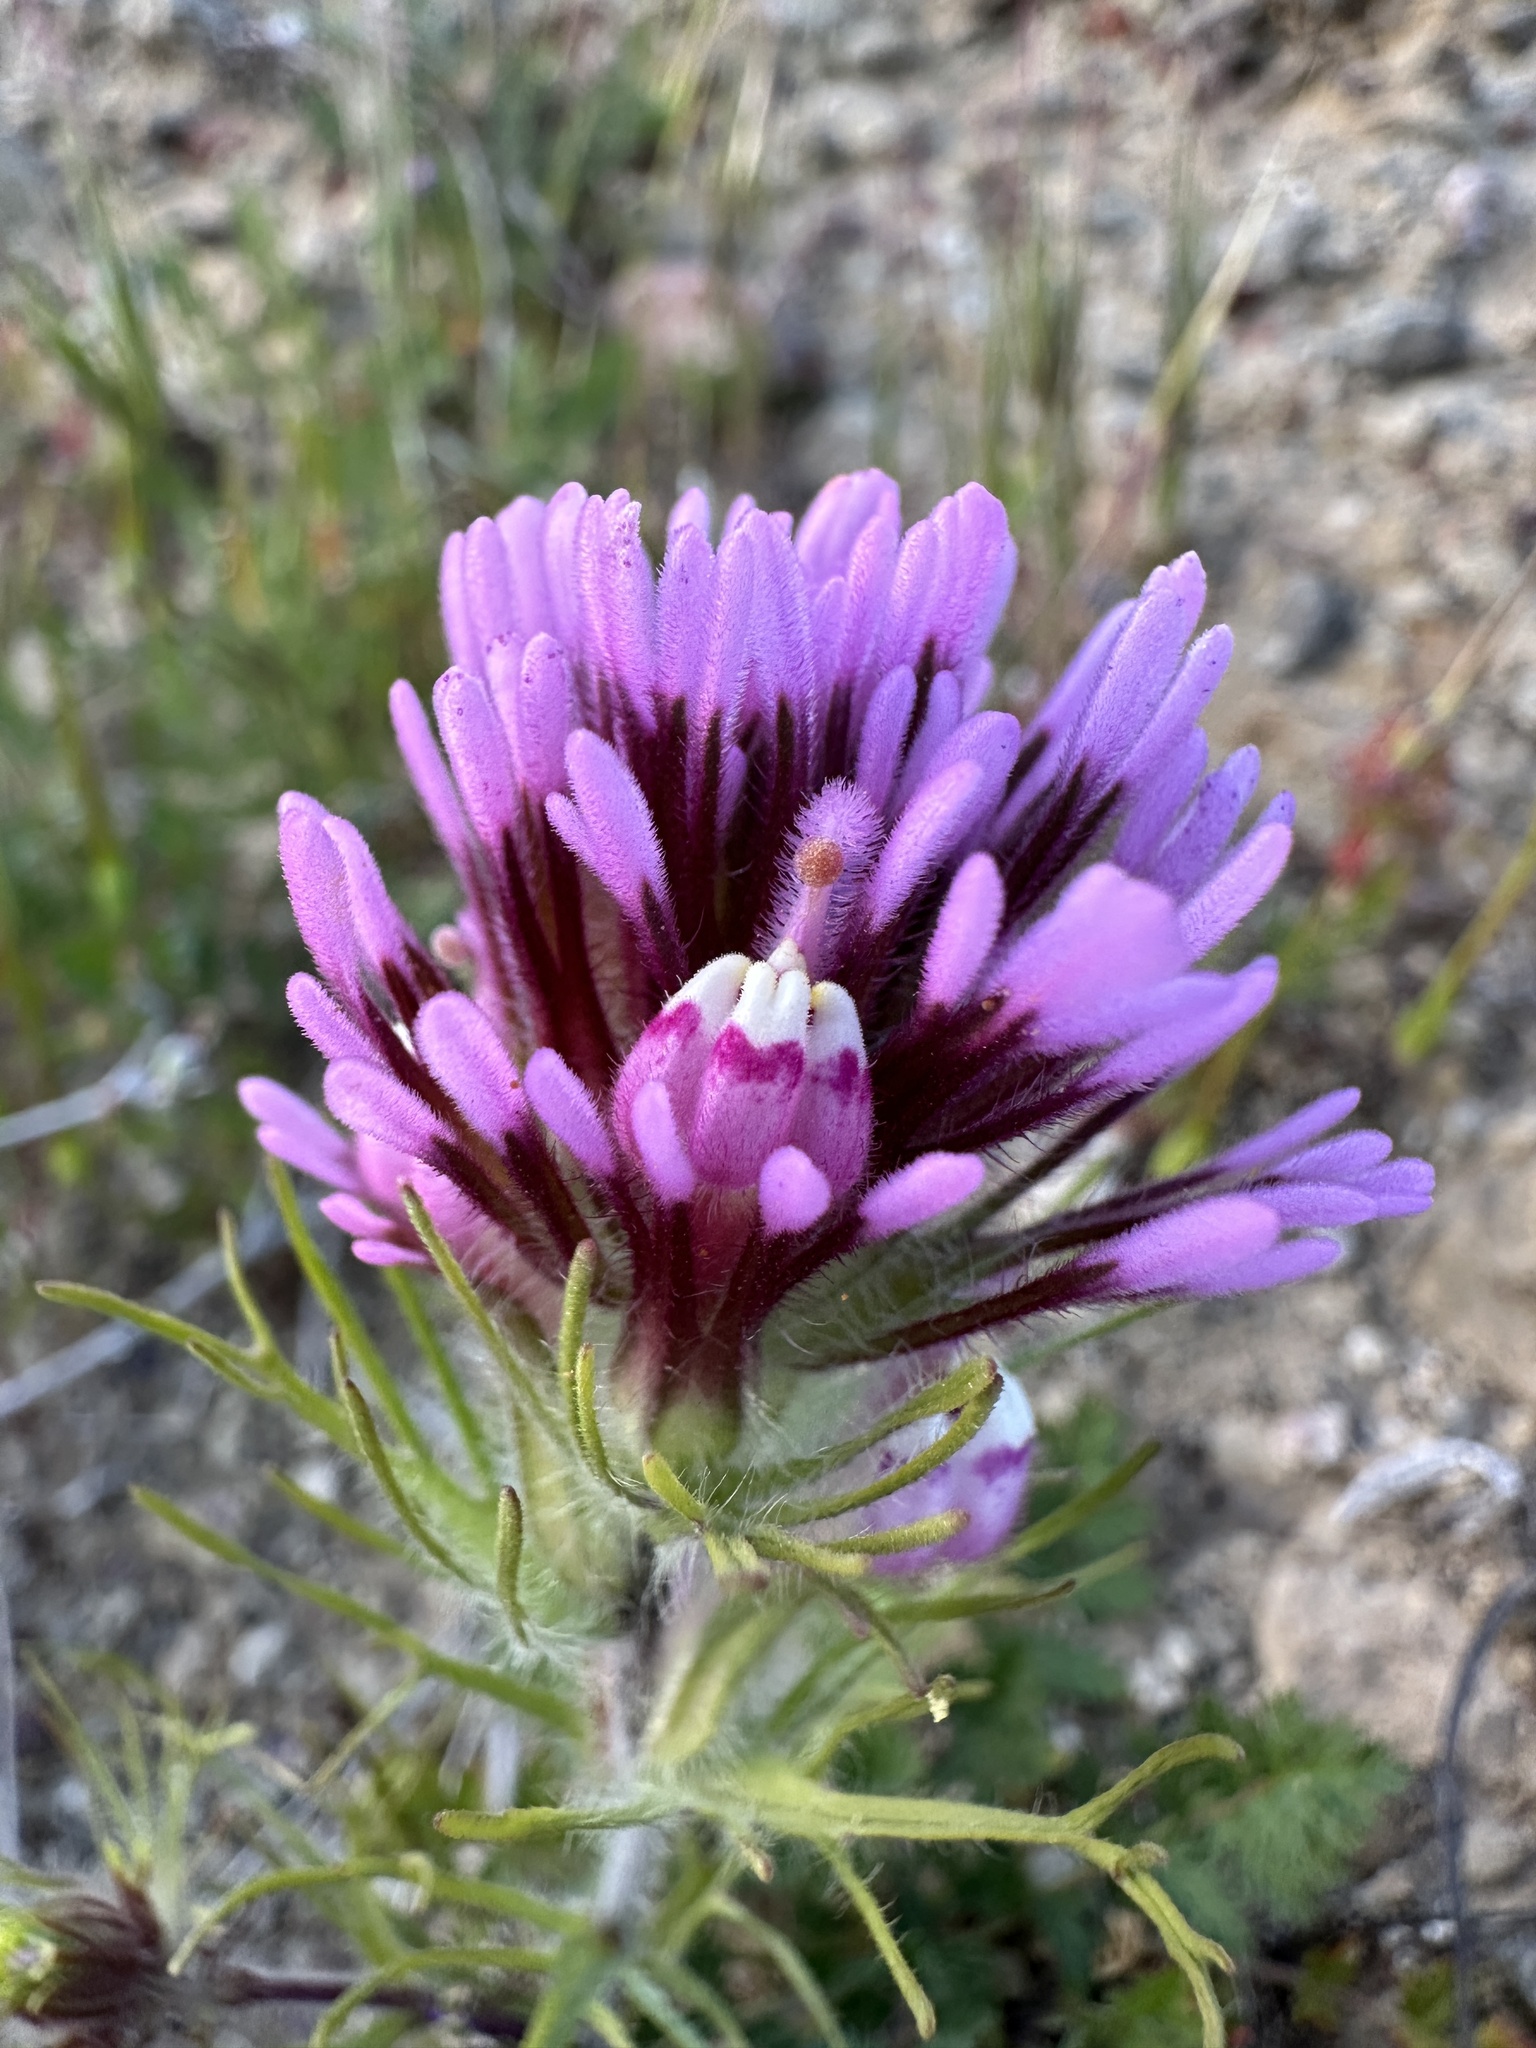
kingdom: Plantae
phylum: Tracheophyta
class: Magnoliopsida
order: Lamiales
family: Orobanchaceae
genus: Castilleja
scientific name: Castilleja exserta
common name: Purple owl-clover
